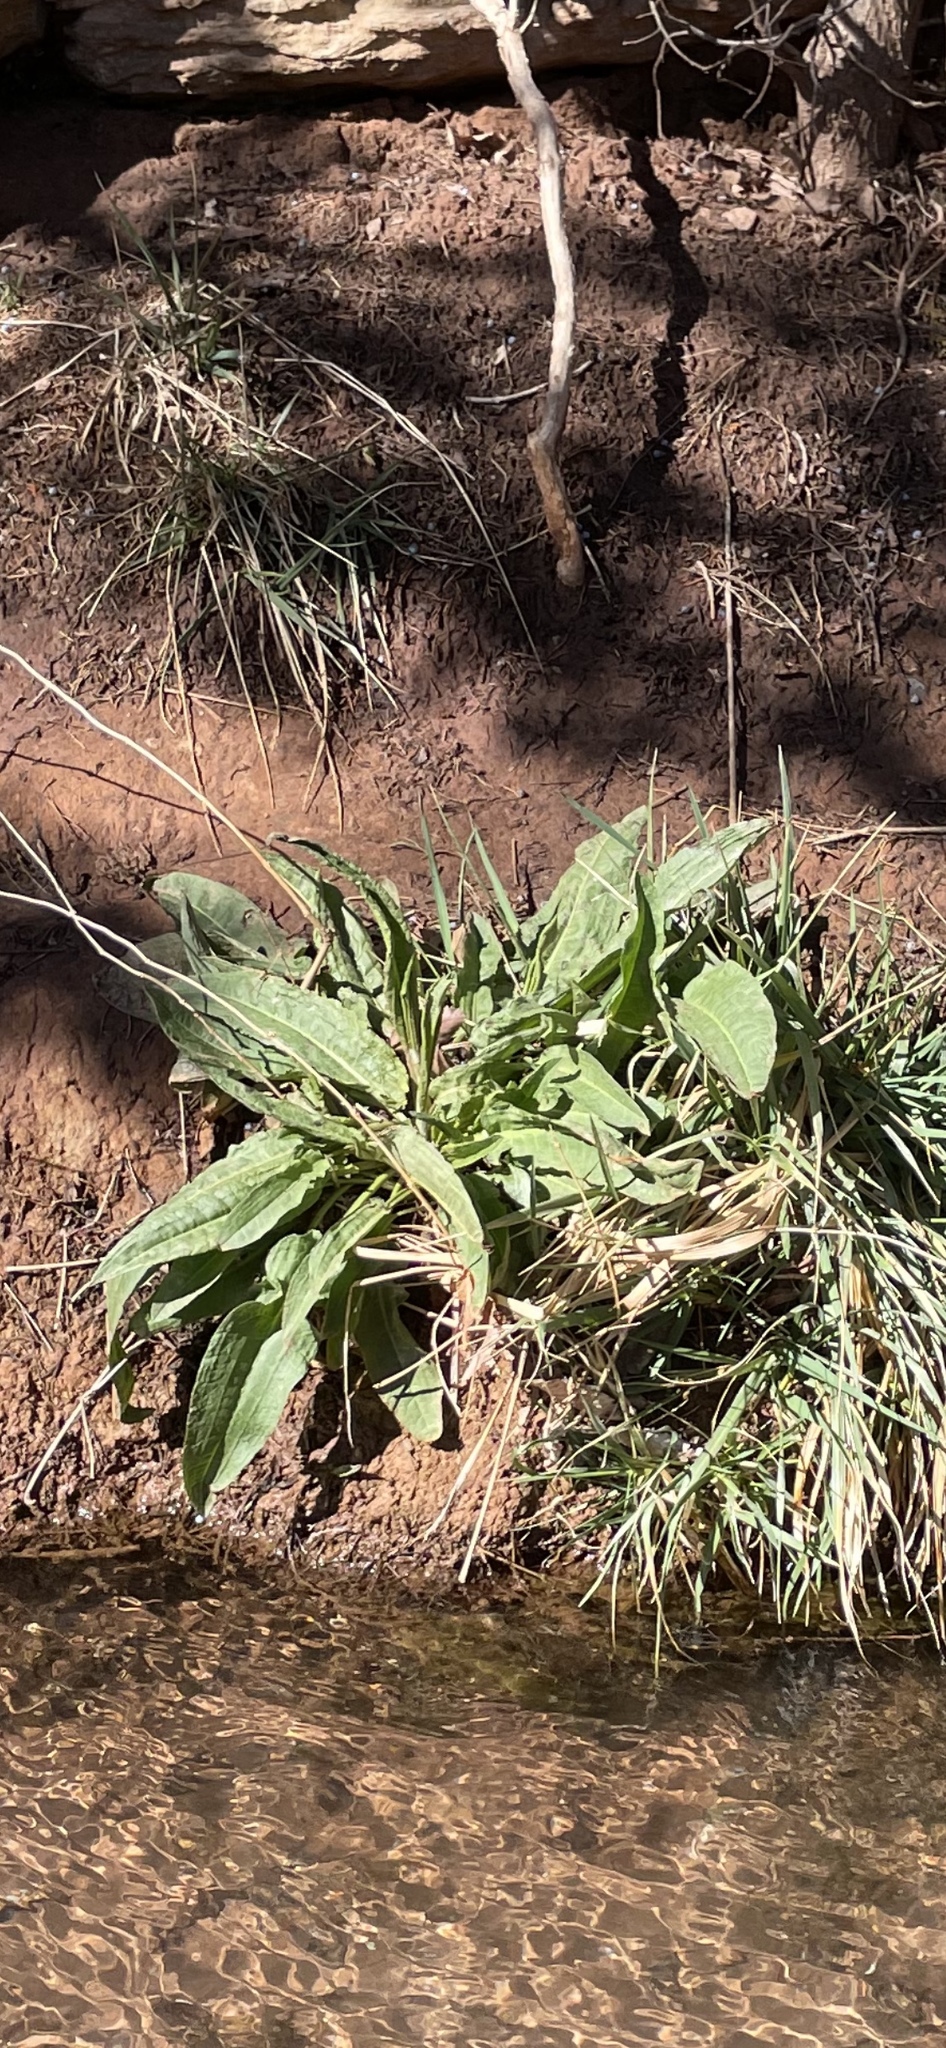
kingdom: Plantae
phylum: Tracheophyta
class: Magnoliopsida
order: Caryophyllales
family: Polygonaceae
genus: Rumex
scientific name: Rumex crispus
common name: Curled dock
